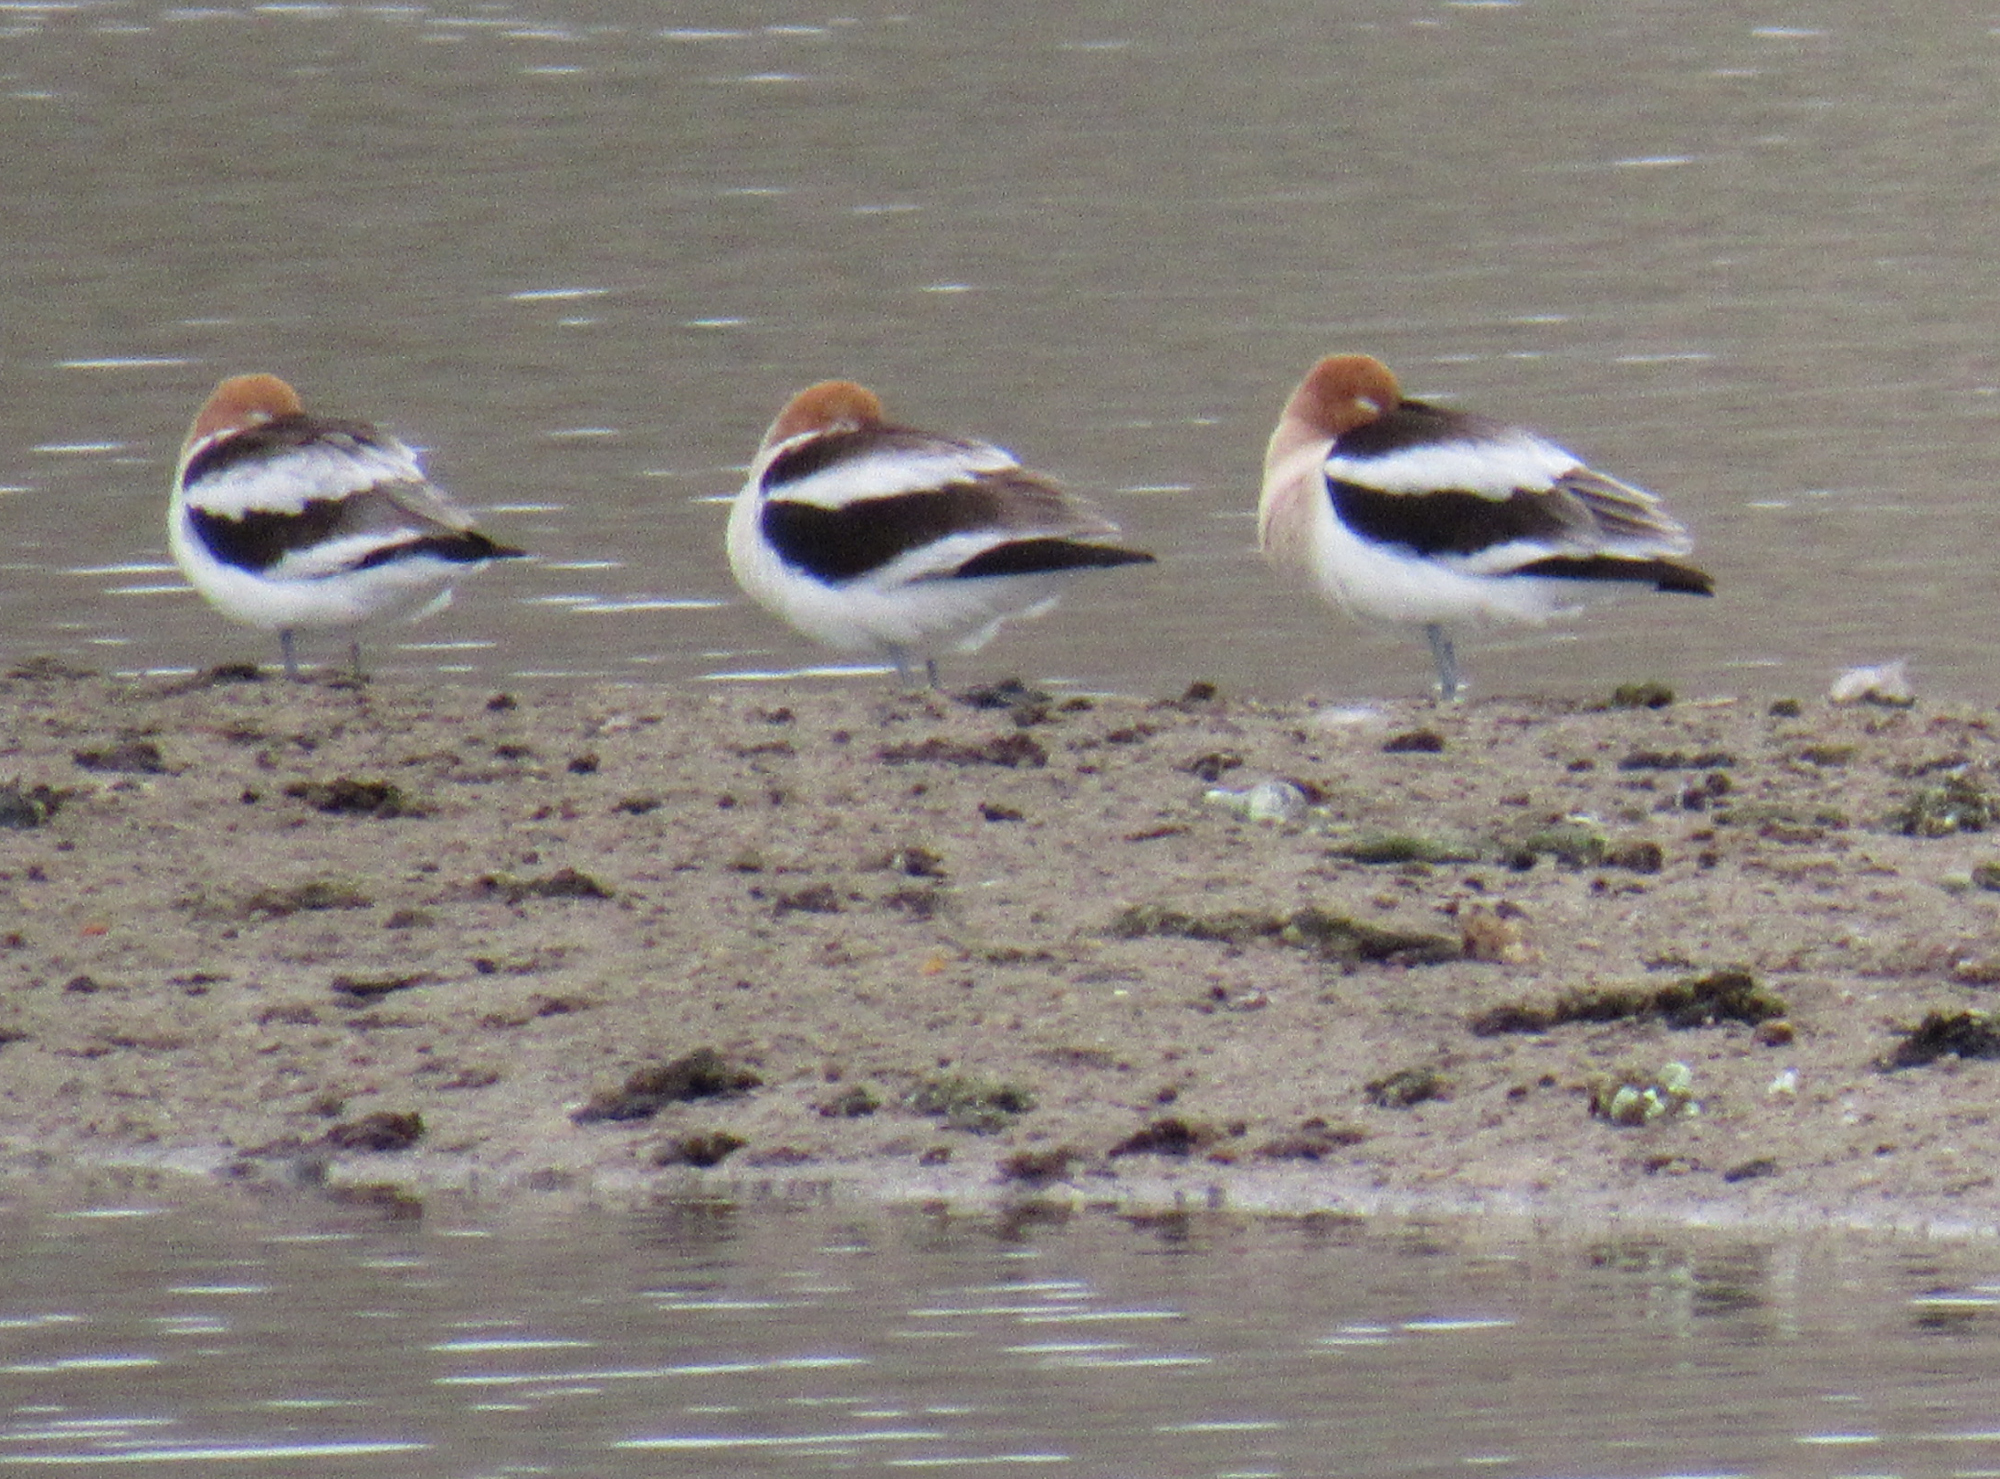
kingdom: Animalia
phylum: Chordata
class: Aves
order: Charadriiformes
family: Recurvirostridae
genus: Recurvirostra
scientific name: Recurvirostra americana
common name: American avocet
